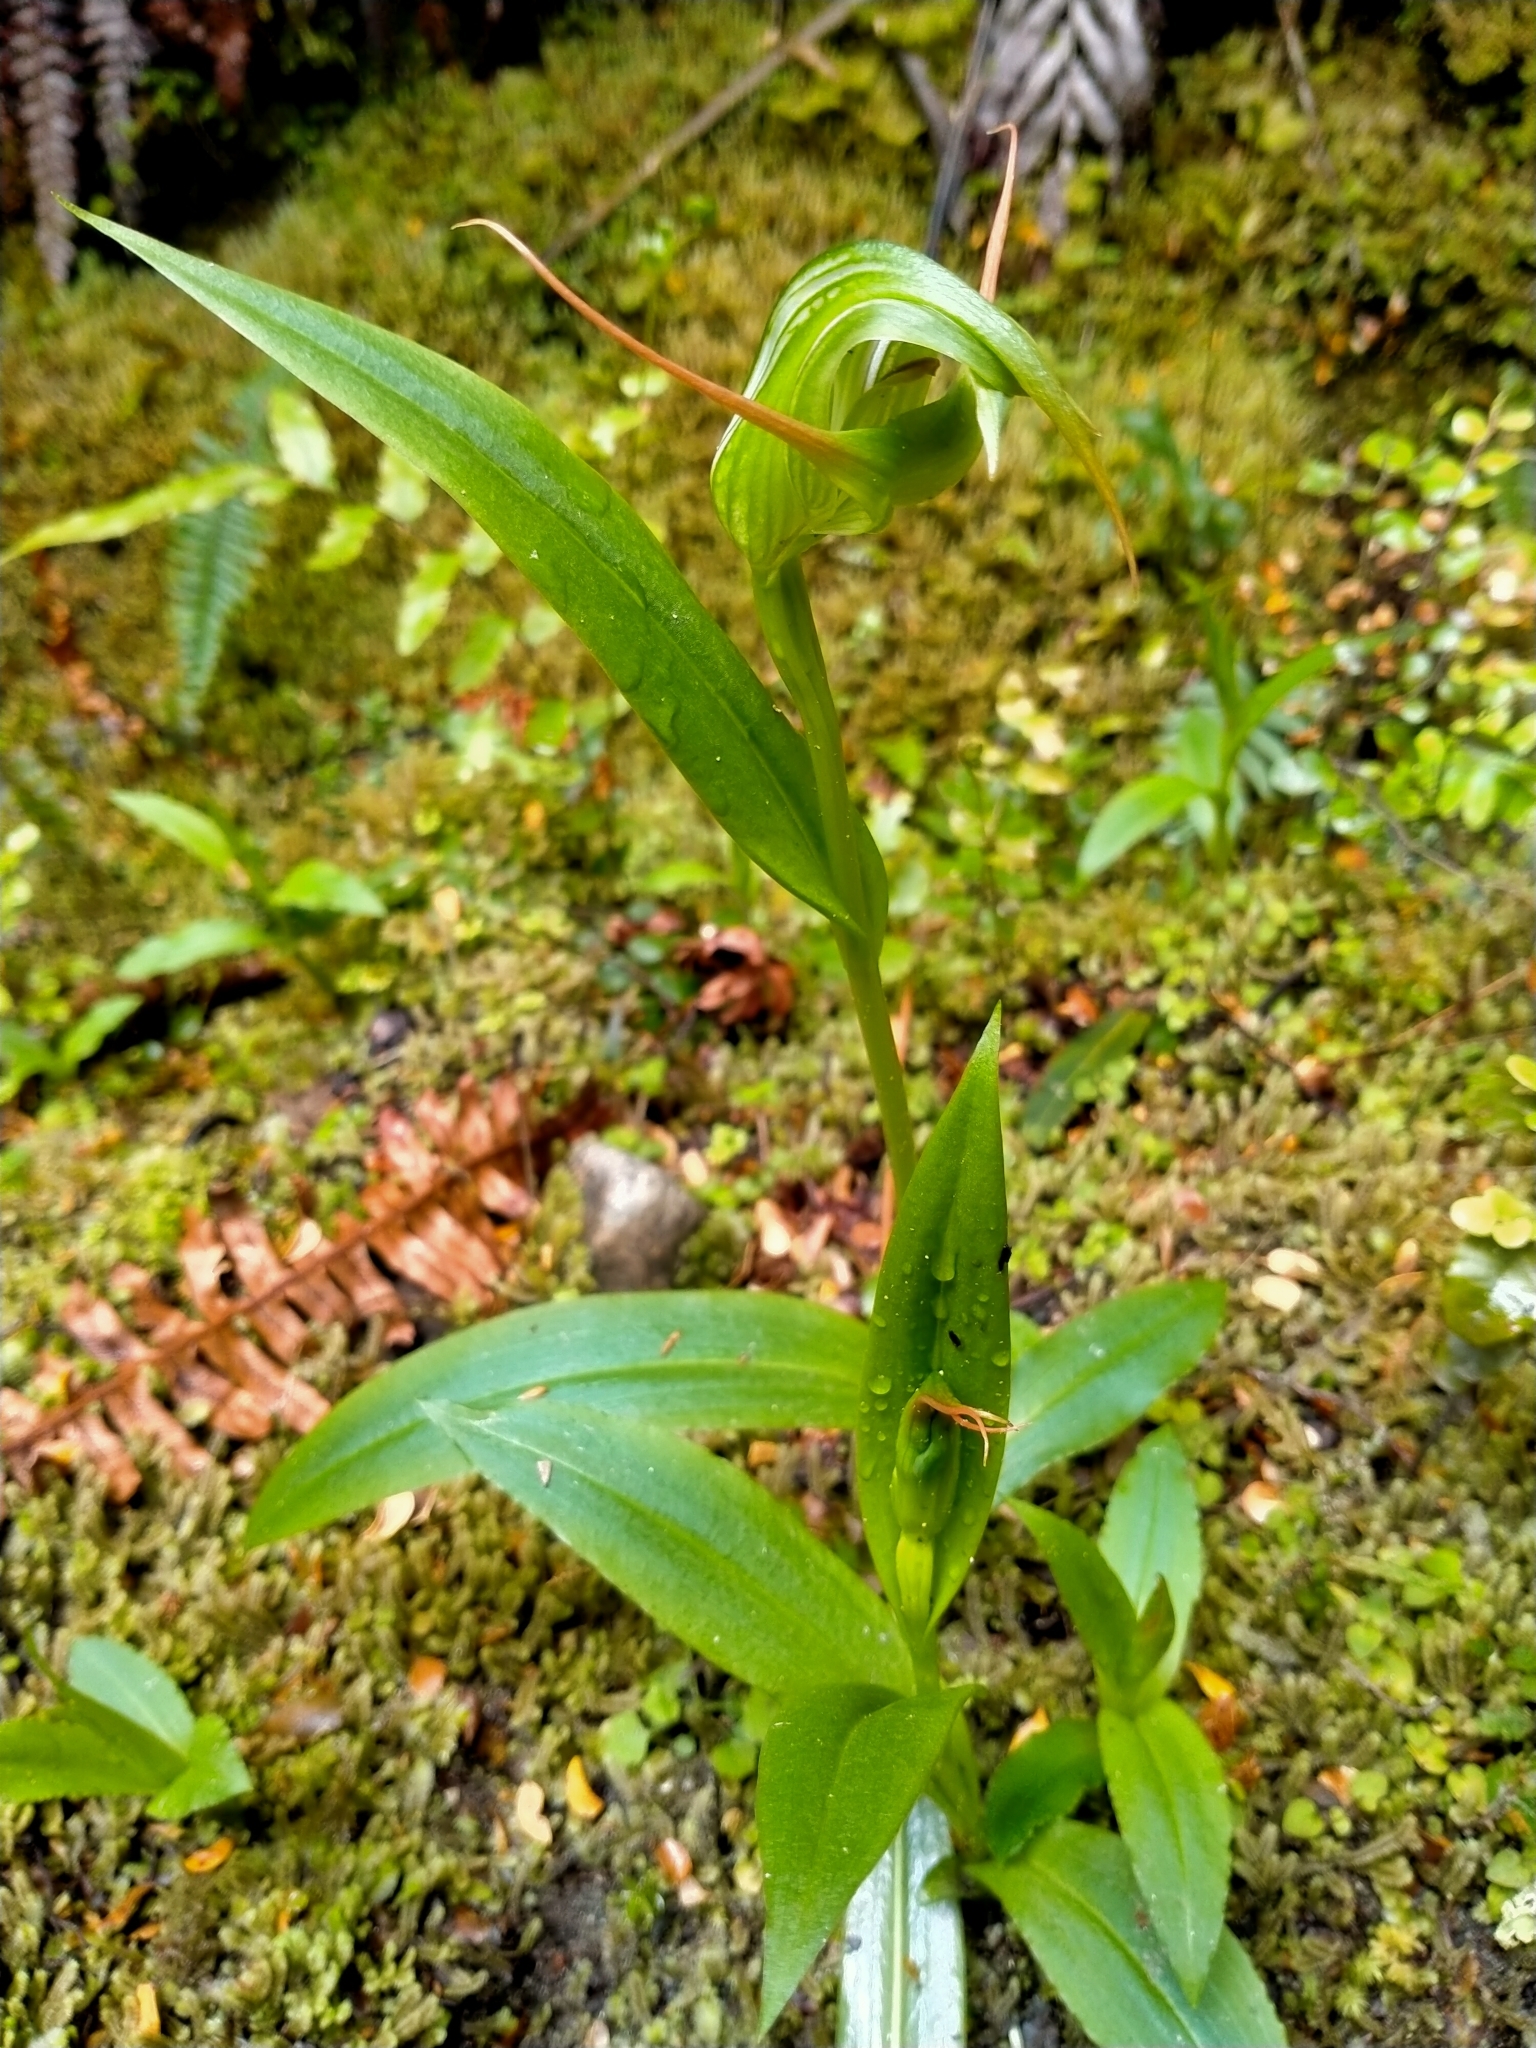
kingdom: Plantae
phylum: Tracheophyta
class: Liliopsida
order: Asparagales
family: Orchidaceae
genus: Pterostylis
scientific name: Pterostylis australis
